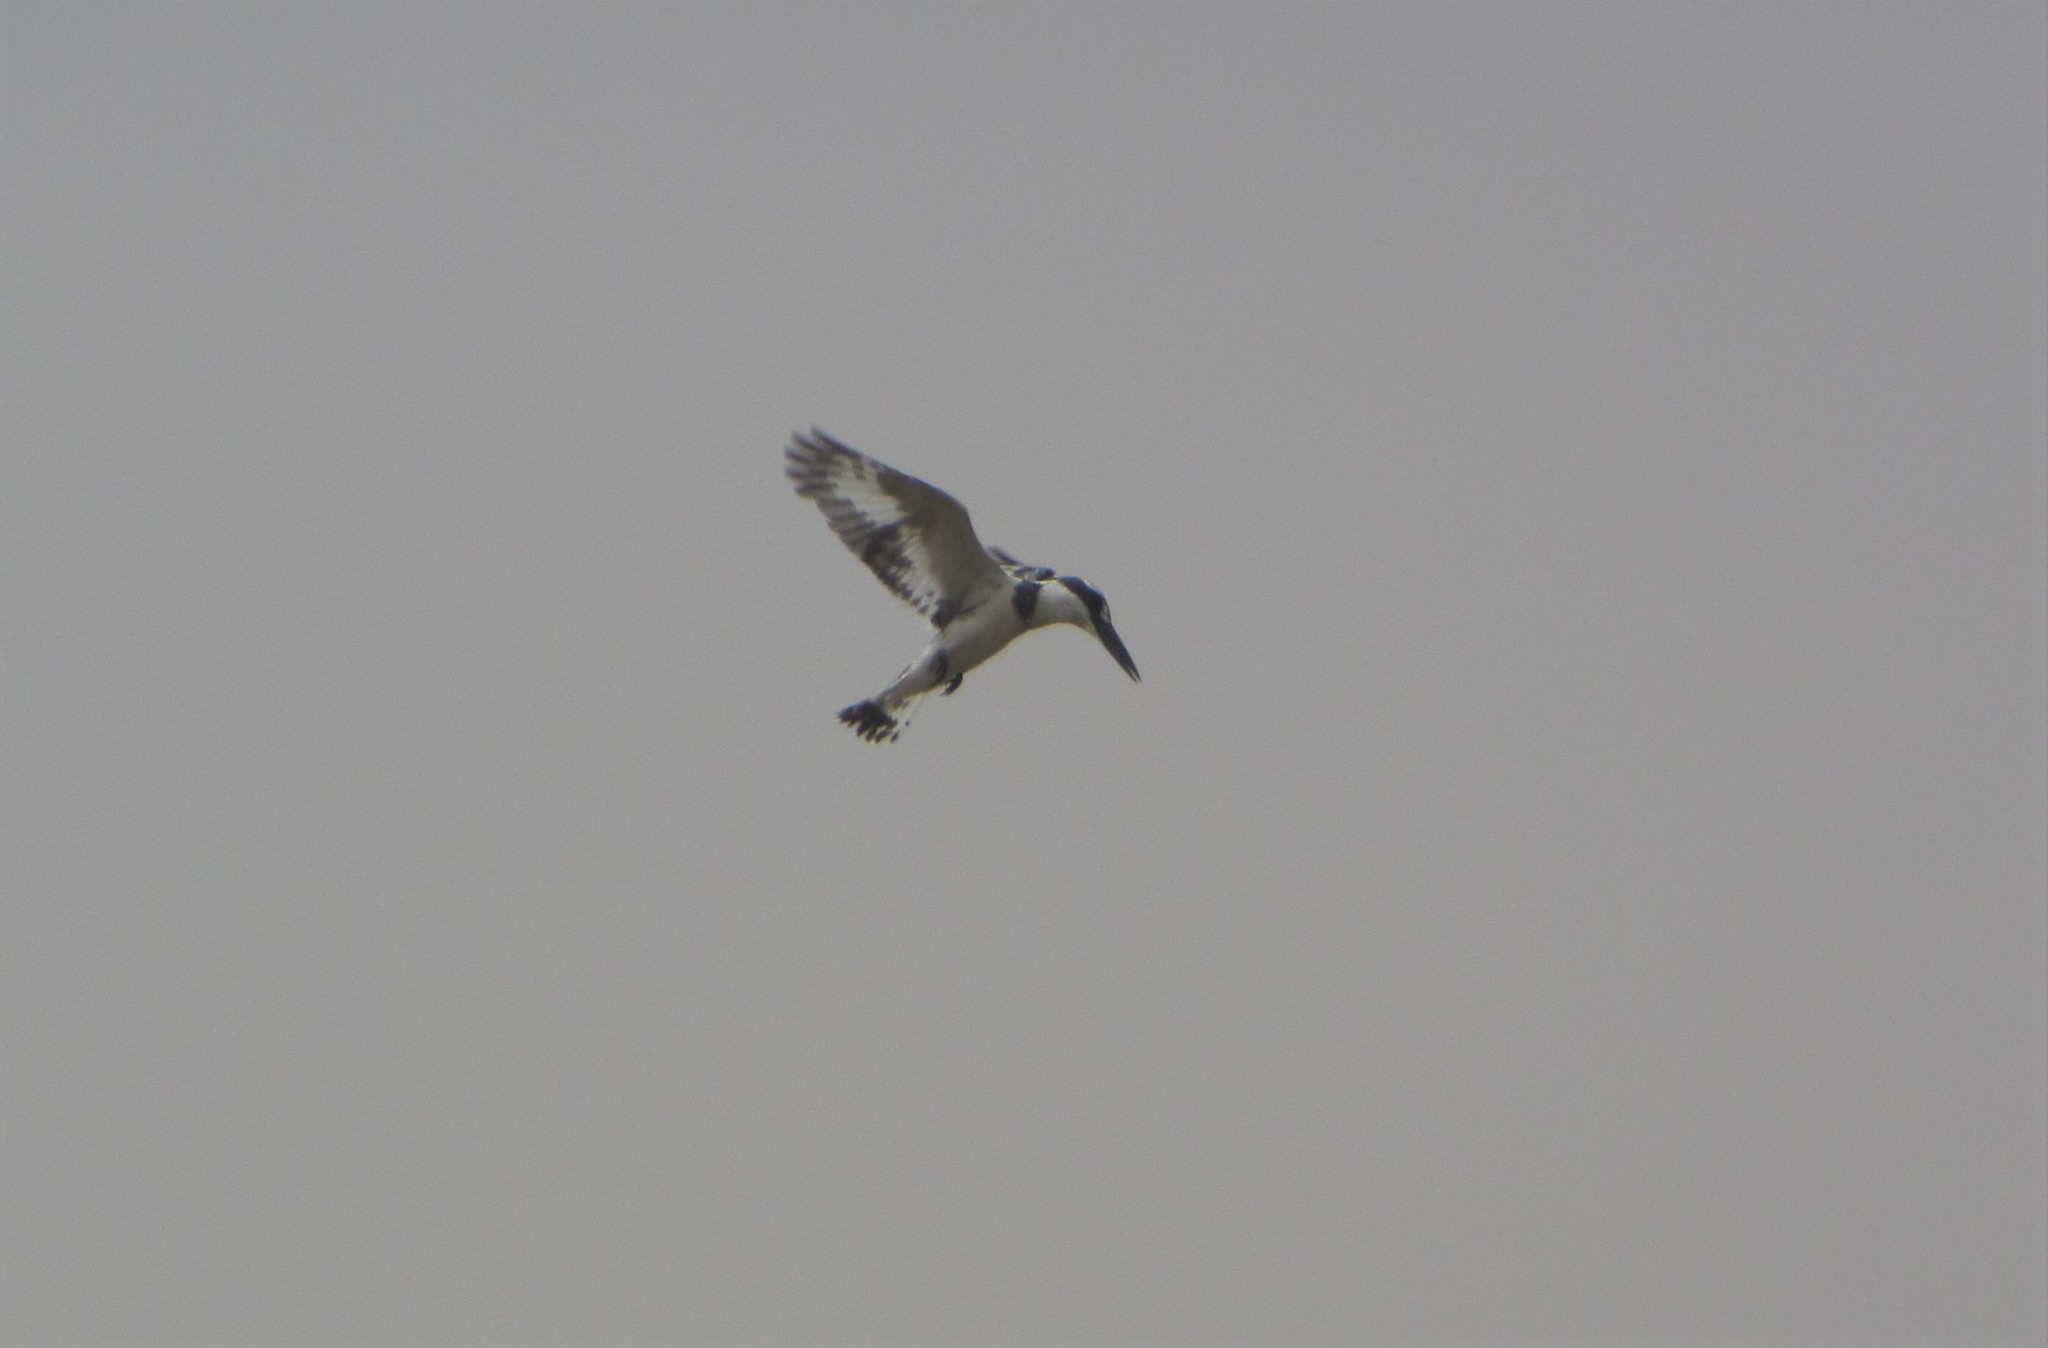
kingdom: Animalia
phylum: Chordata
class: Aves
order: Coraciiformes
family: Alcedinidae
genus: Ceryle
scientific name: Ceryle rudis
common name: Pied kingfisher
